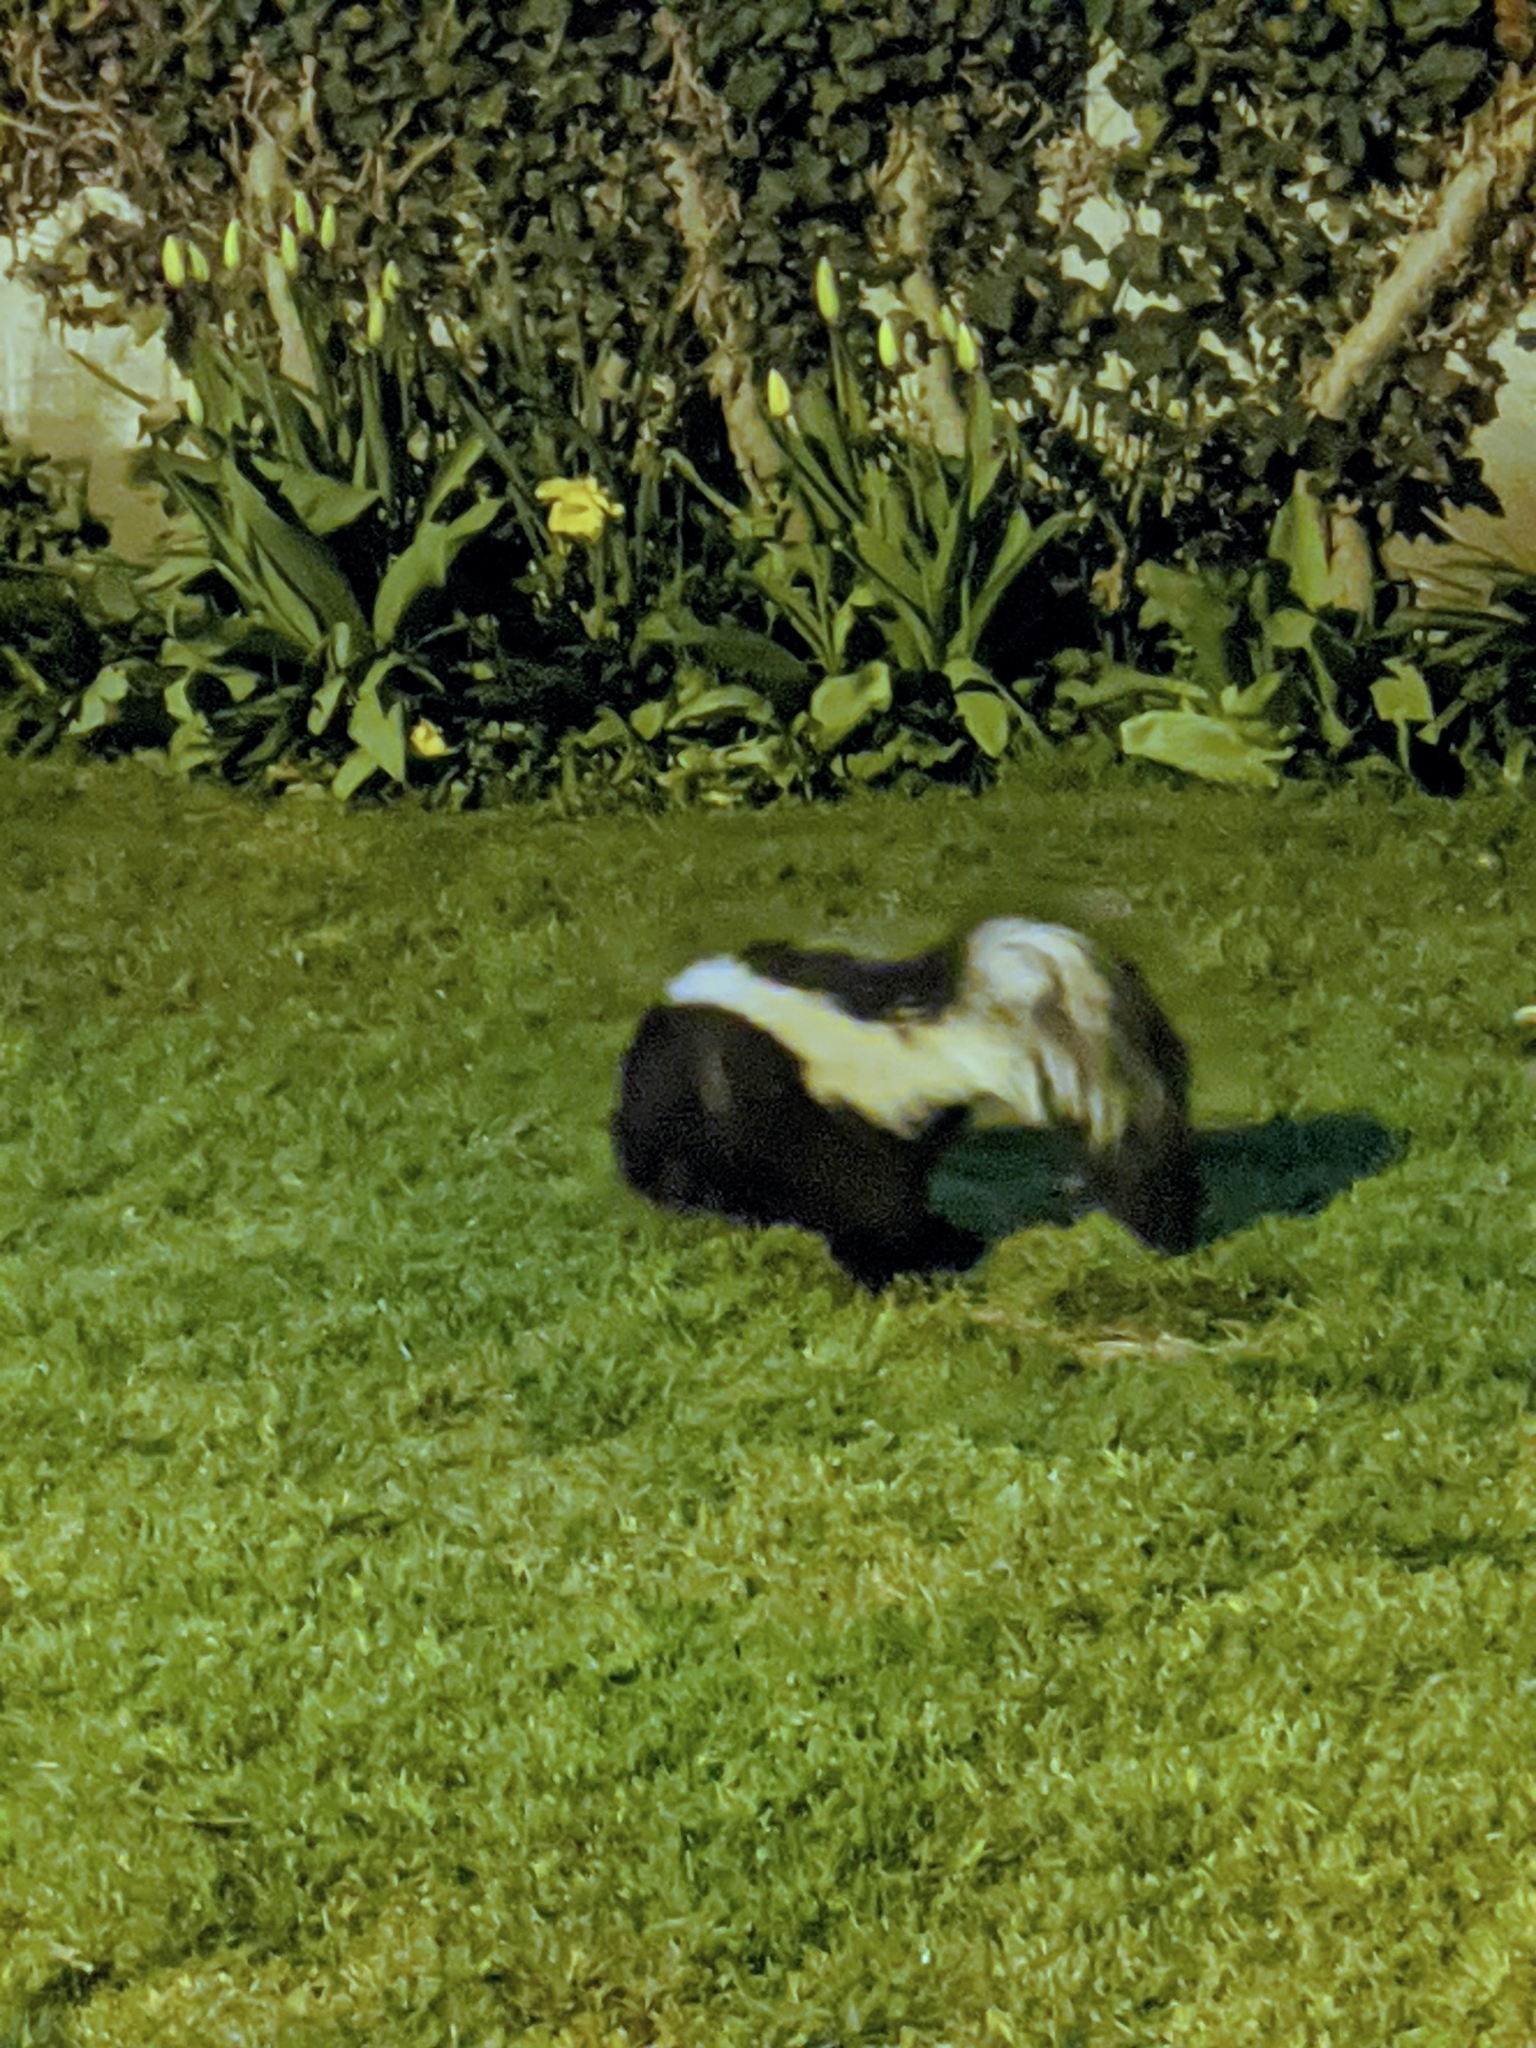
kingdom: Animalia
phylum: Chordata
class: Mammalia
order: Carnivora
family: Mephitidae
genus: Mephitis
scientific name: Mephitis mephitis
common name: Striped skunk
